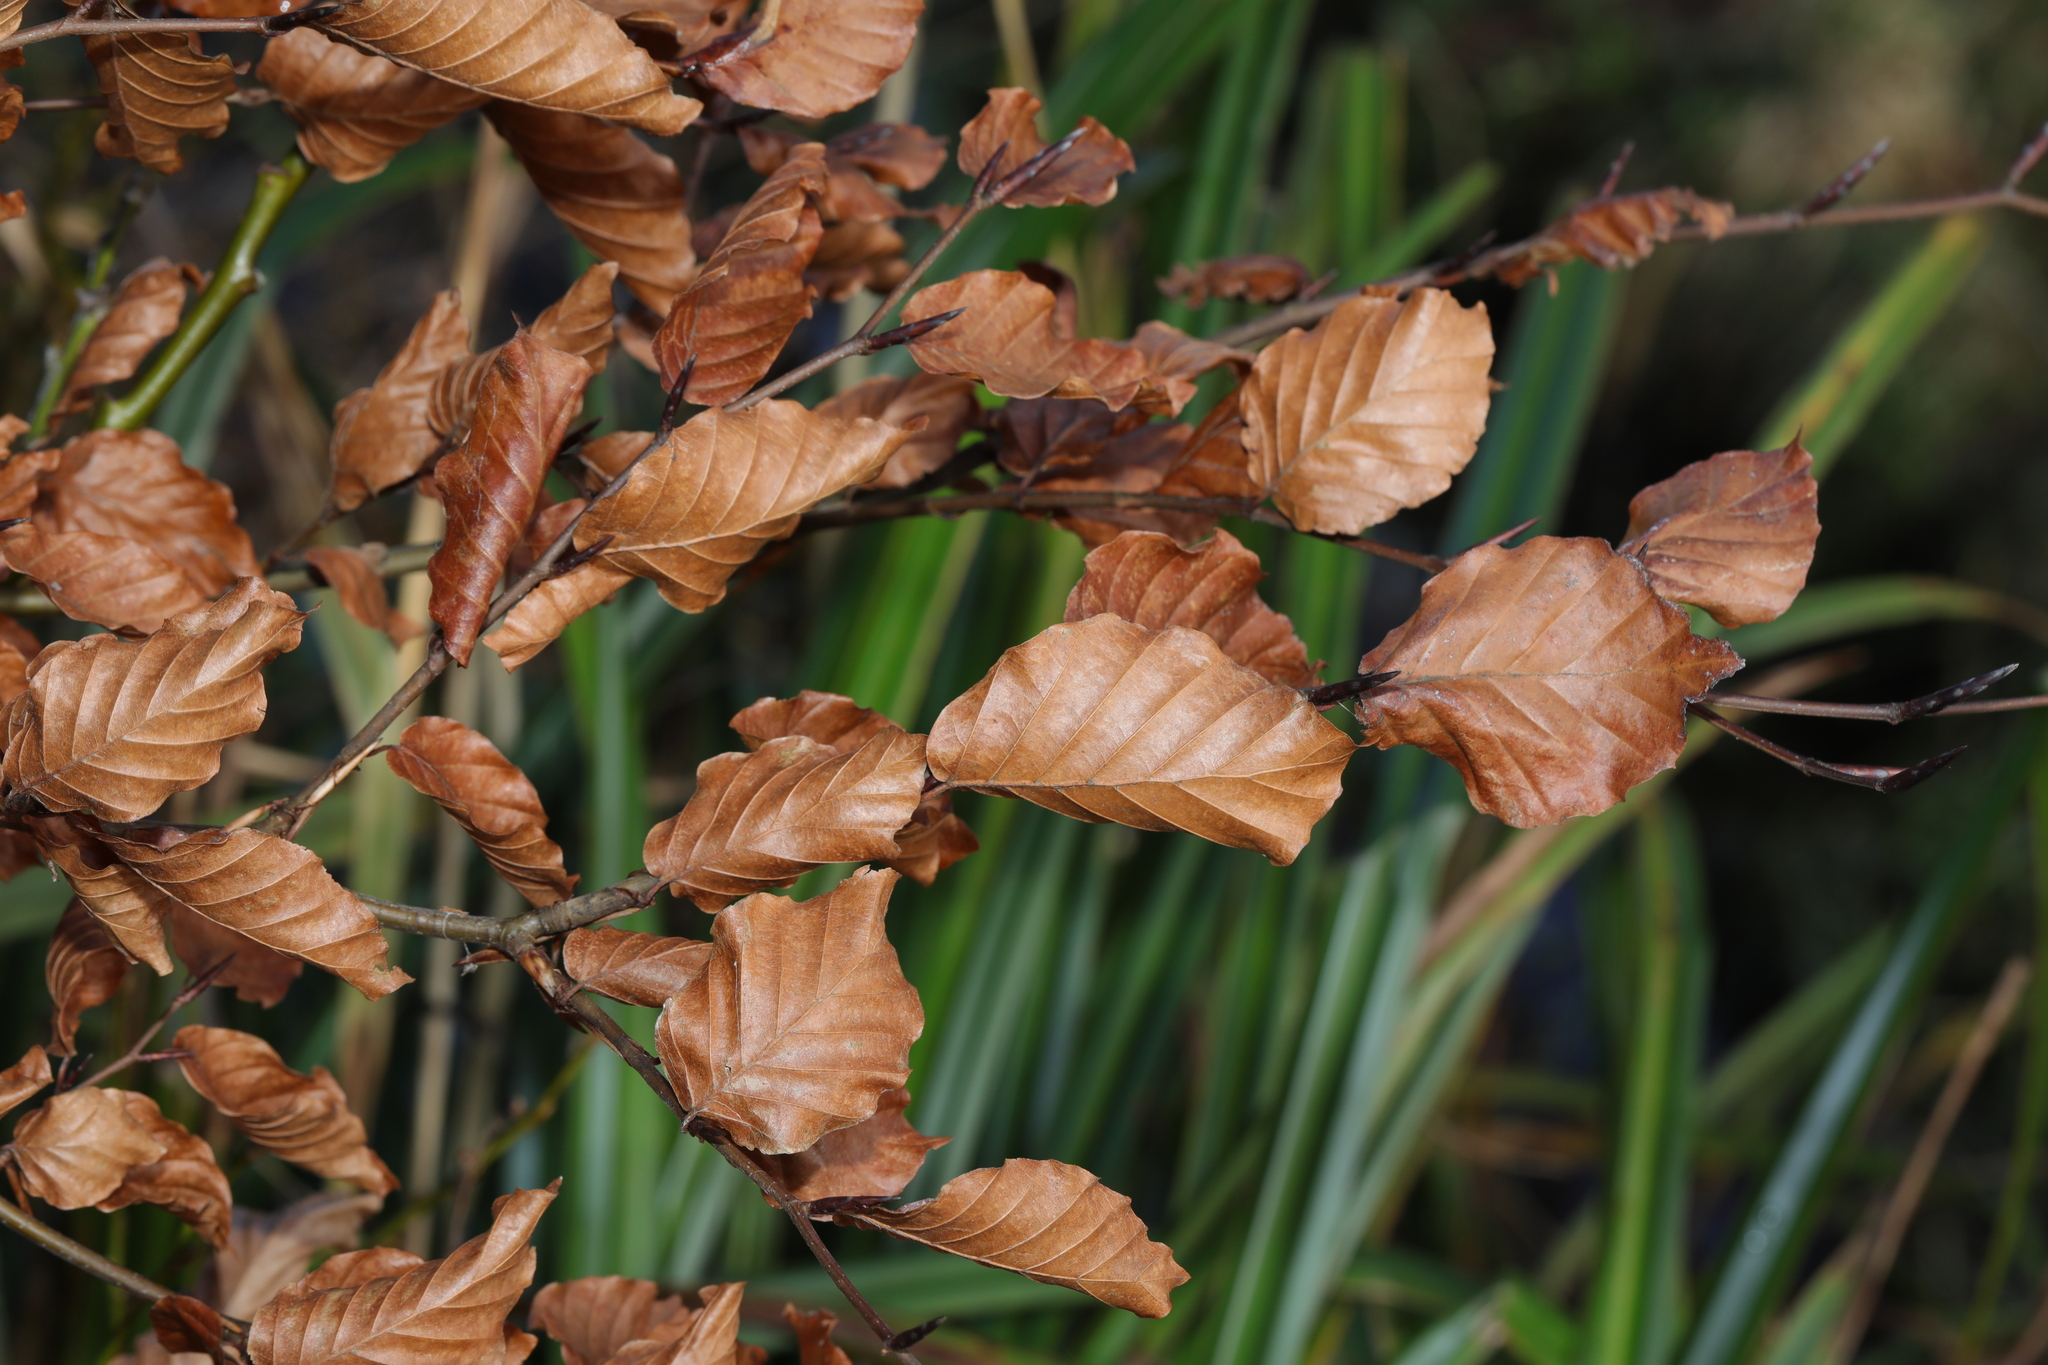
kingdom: Plantae
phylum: Tracheophyta
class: Magnoliopsida
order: Fagales
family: Fagaceae
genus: Fagus
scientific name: Fagus sylvatica
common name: Beech
